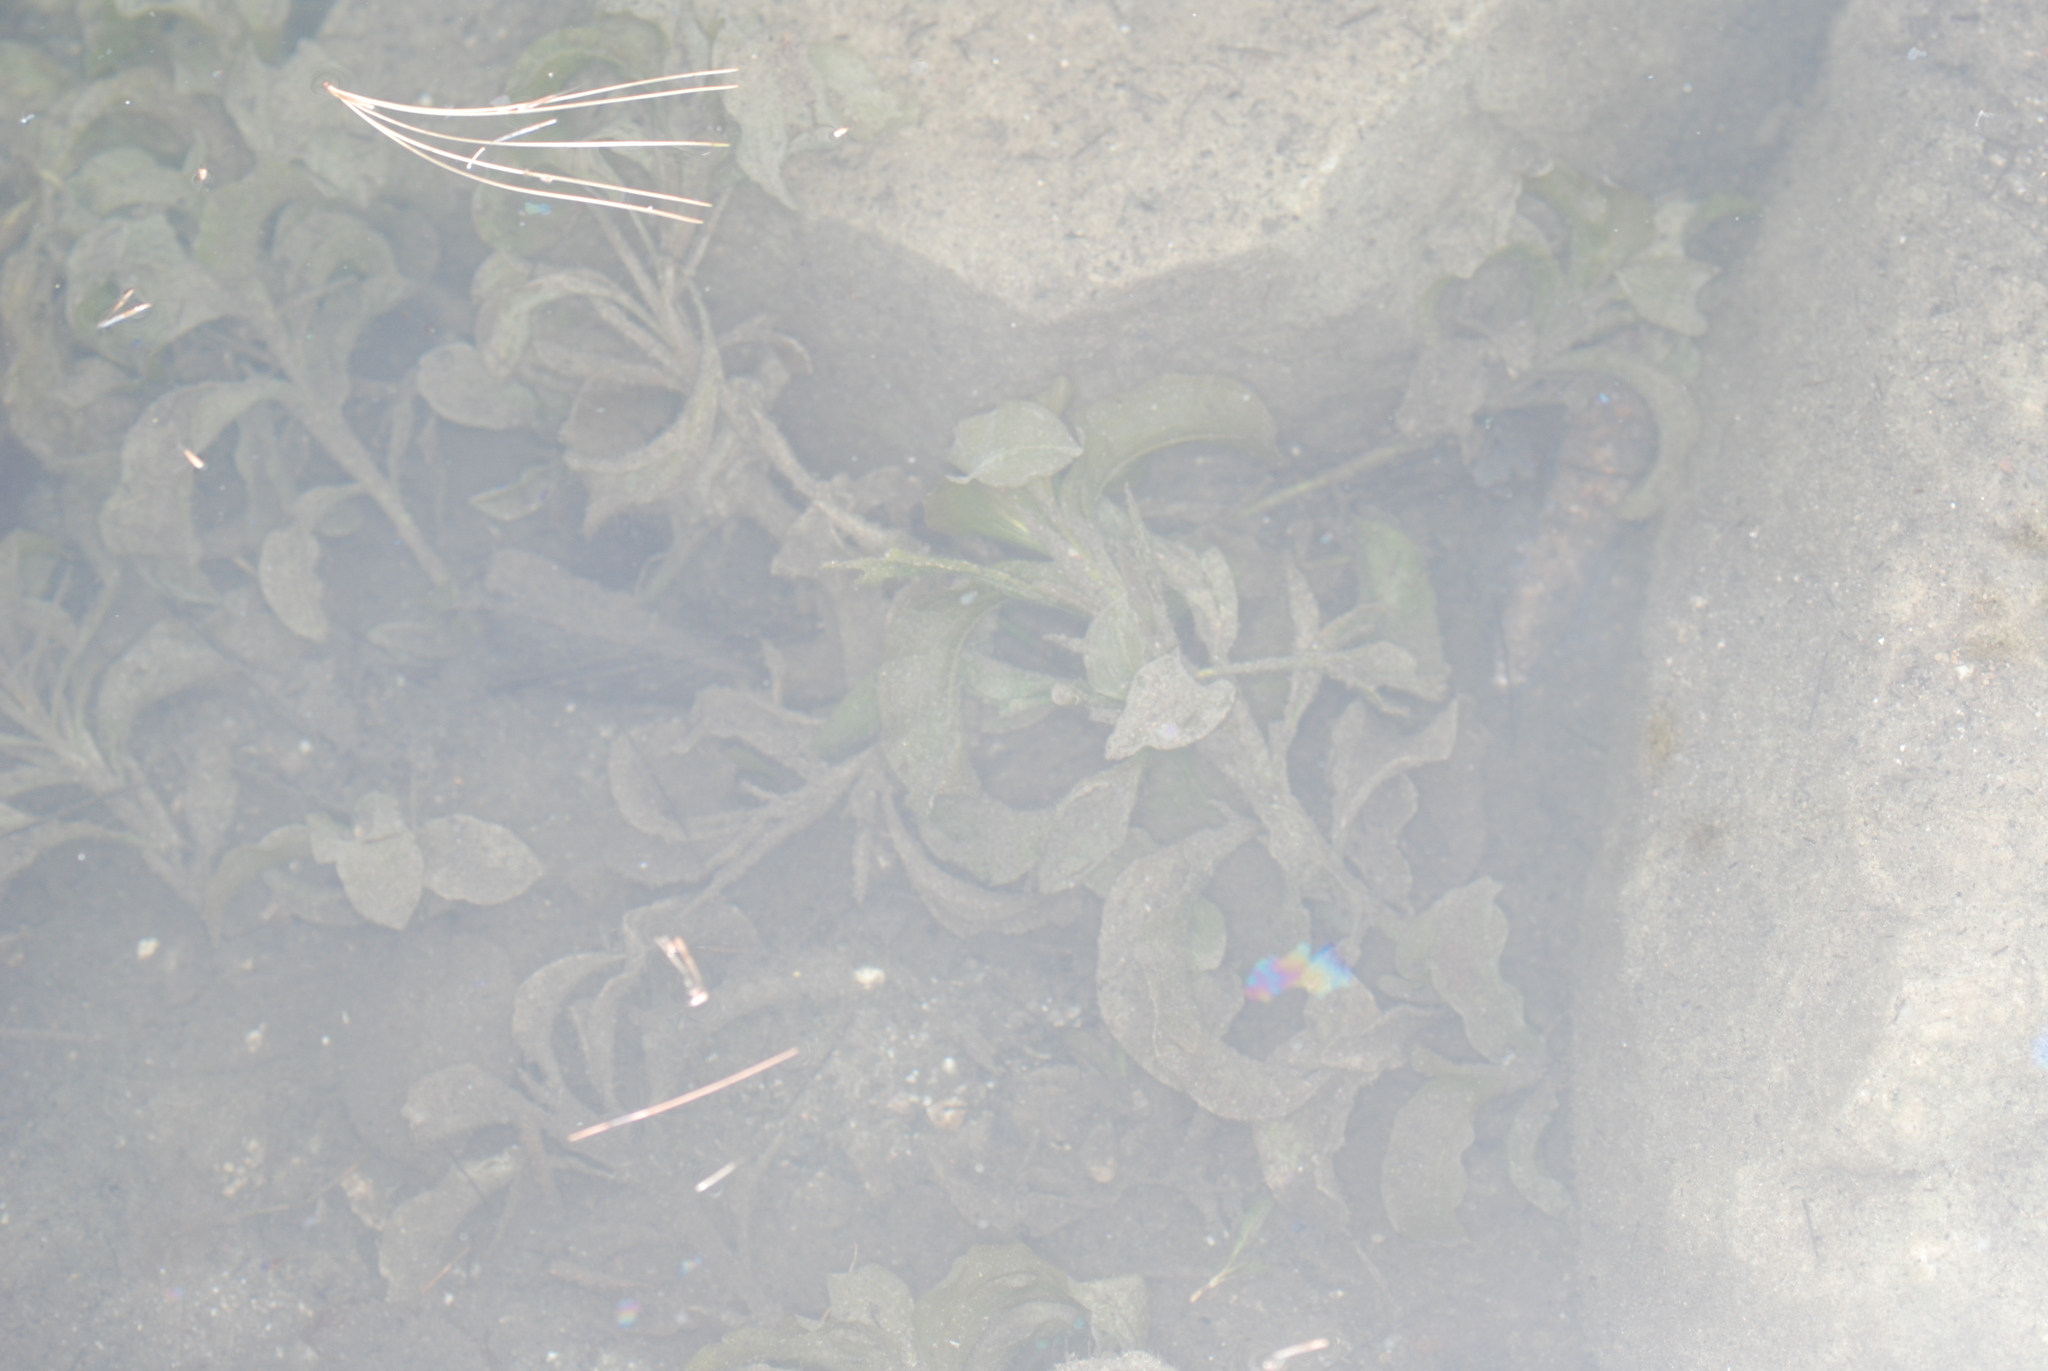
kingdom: Plantae
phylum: Tracheophyta
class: Liliopsida
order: Alismatales
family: Potamogetonaceae
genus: Potamogeton
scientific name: Potamogeton amplifolius
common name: Broad-leaved pondweed
